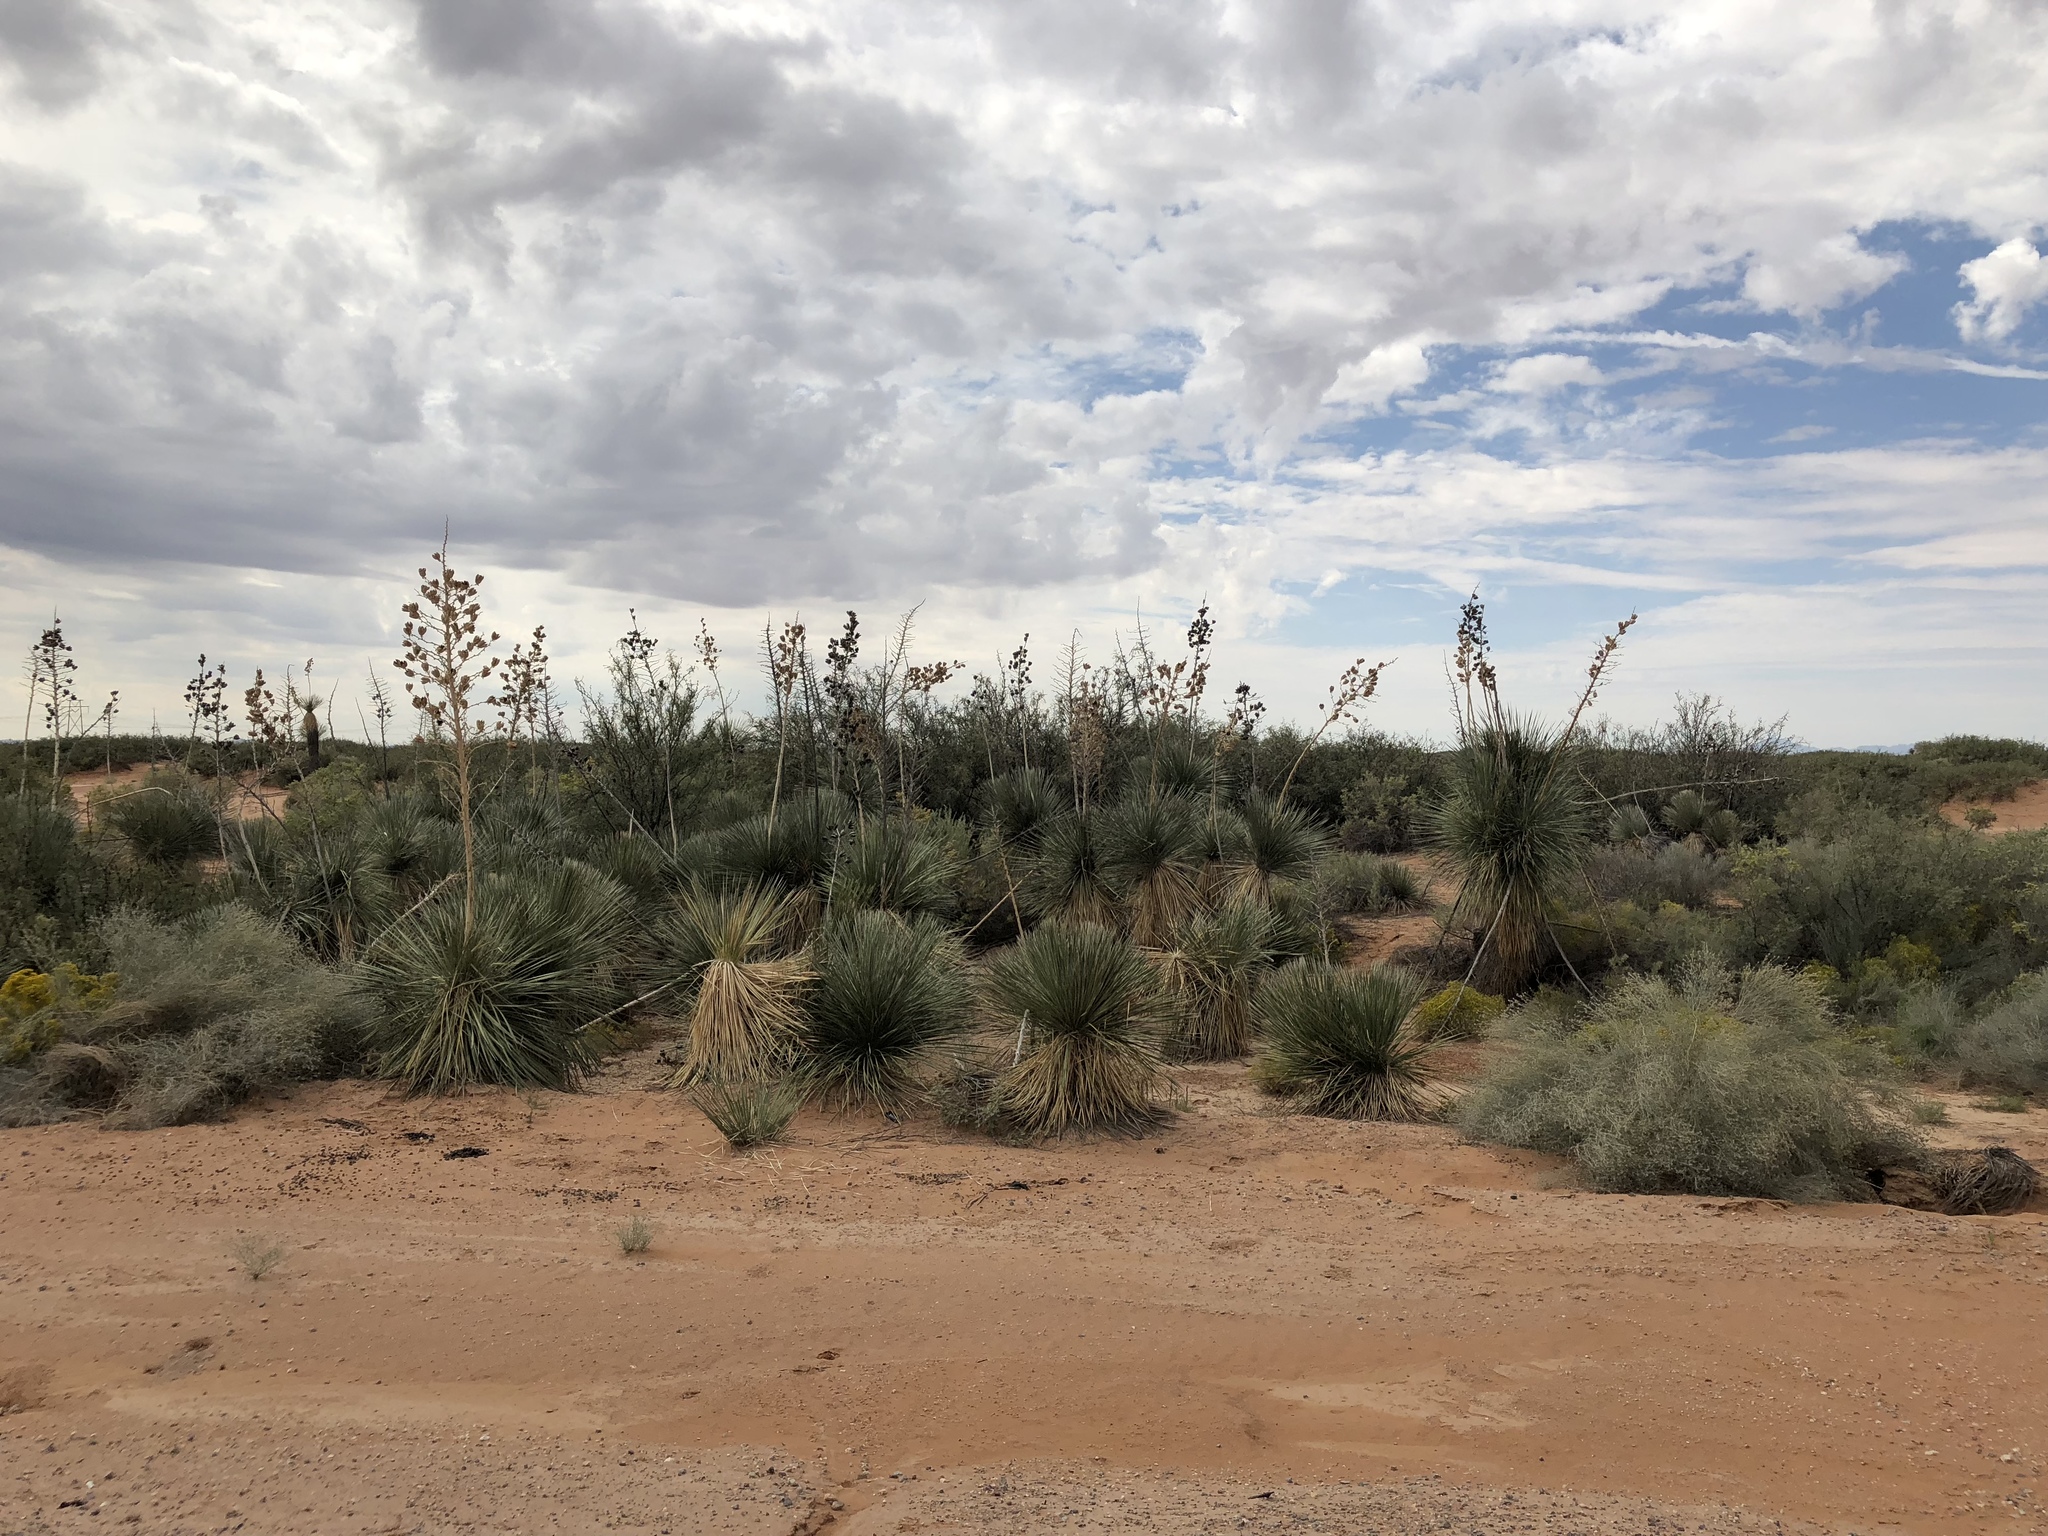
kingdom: Plantae
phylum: Tracheophyta
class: Liliopsida
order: Asparagales
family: Asparagaceae
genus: Yucca
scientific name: Yucca elata
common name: Palmella
